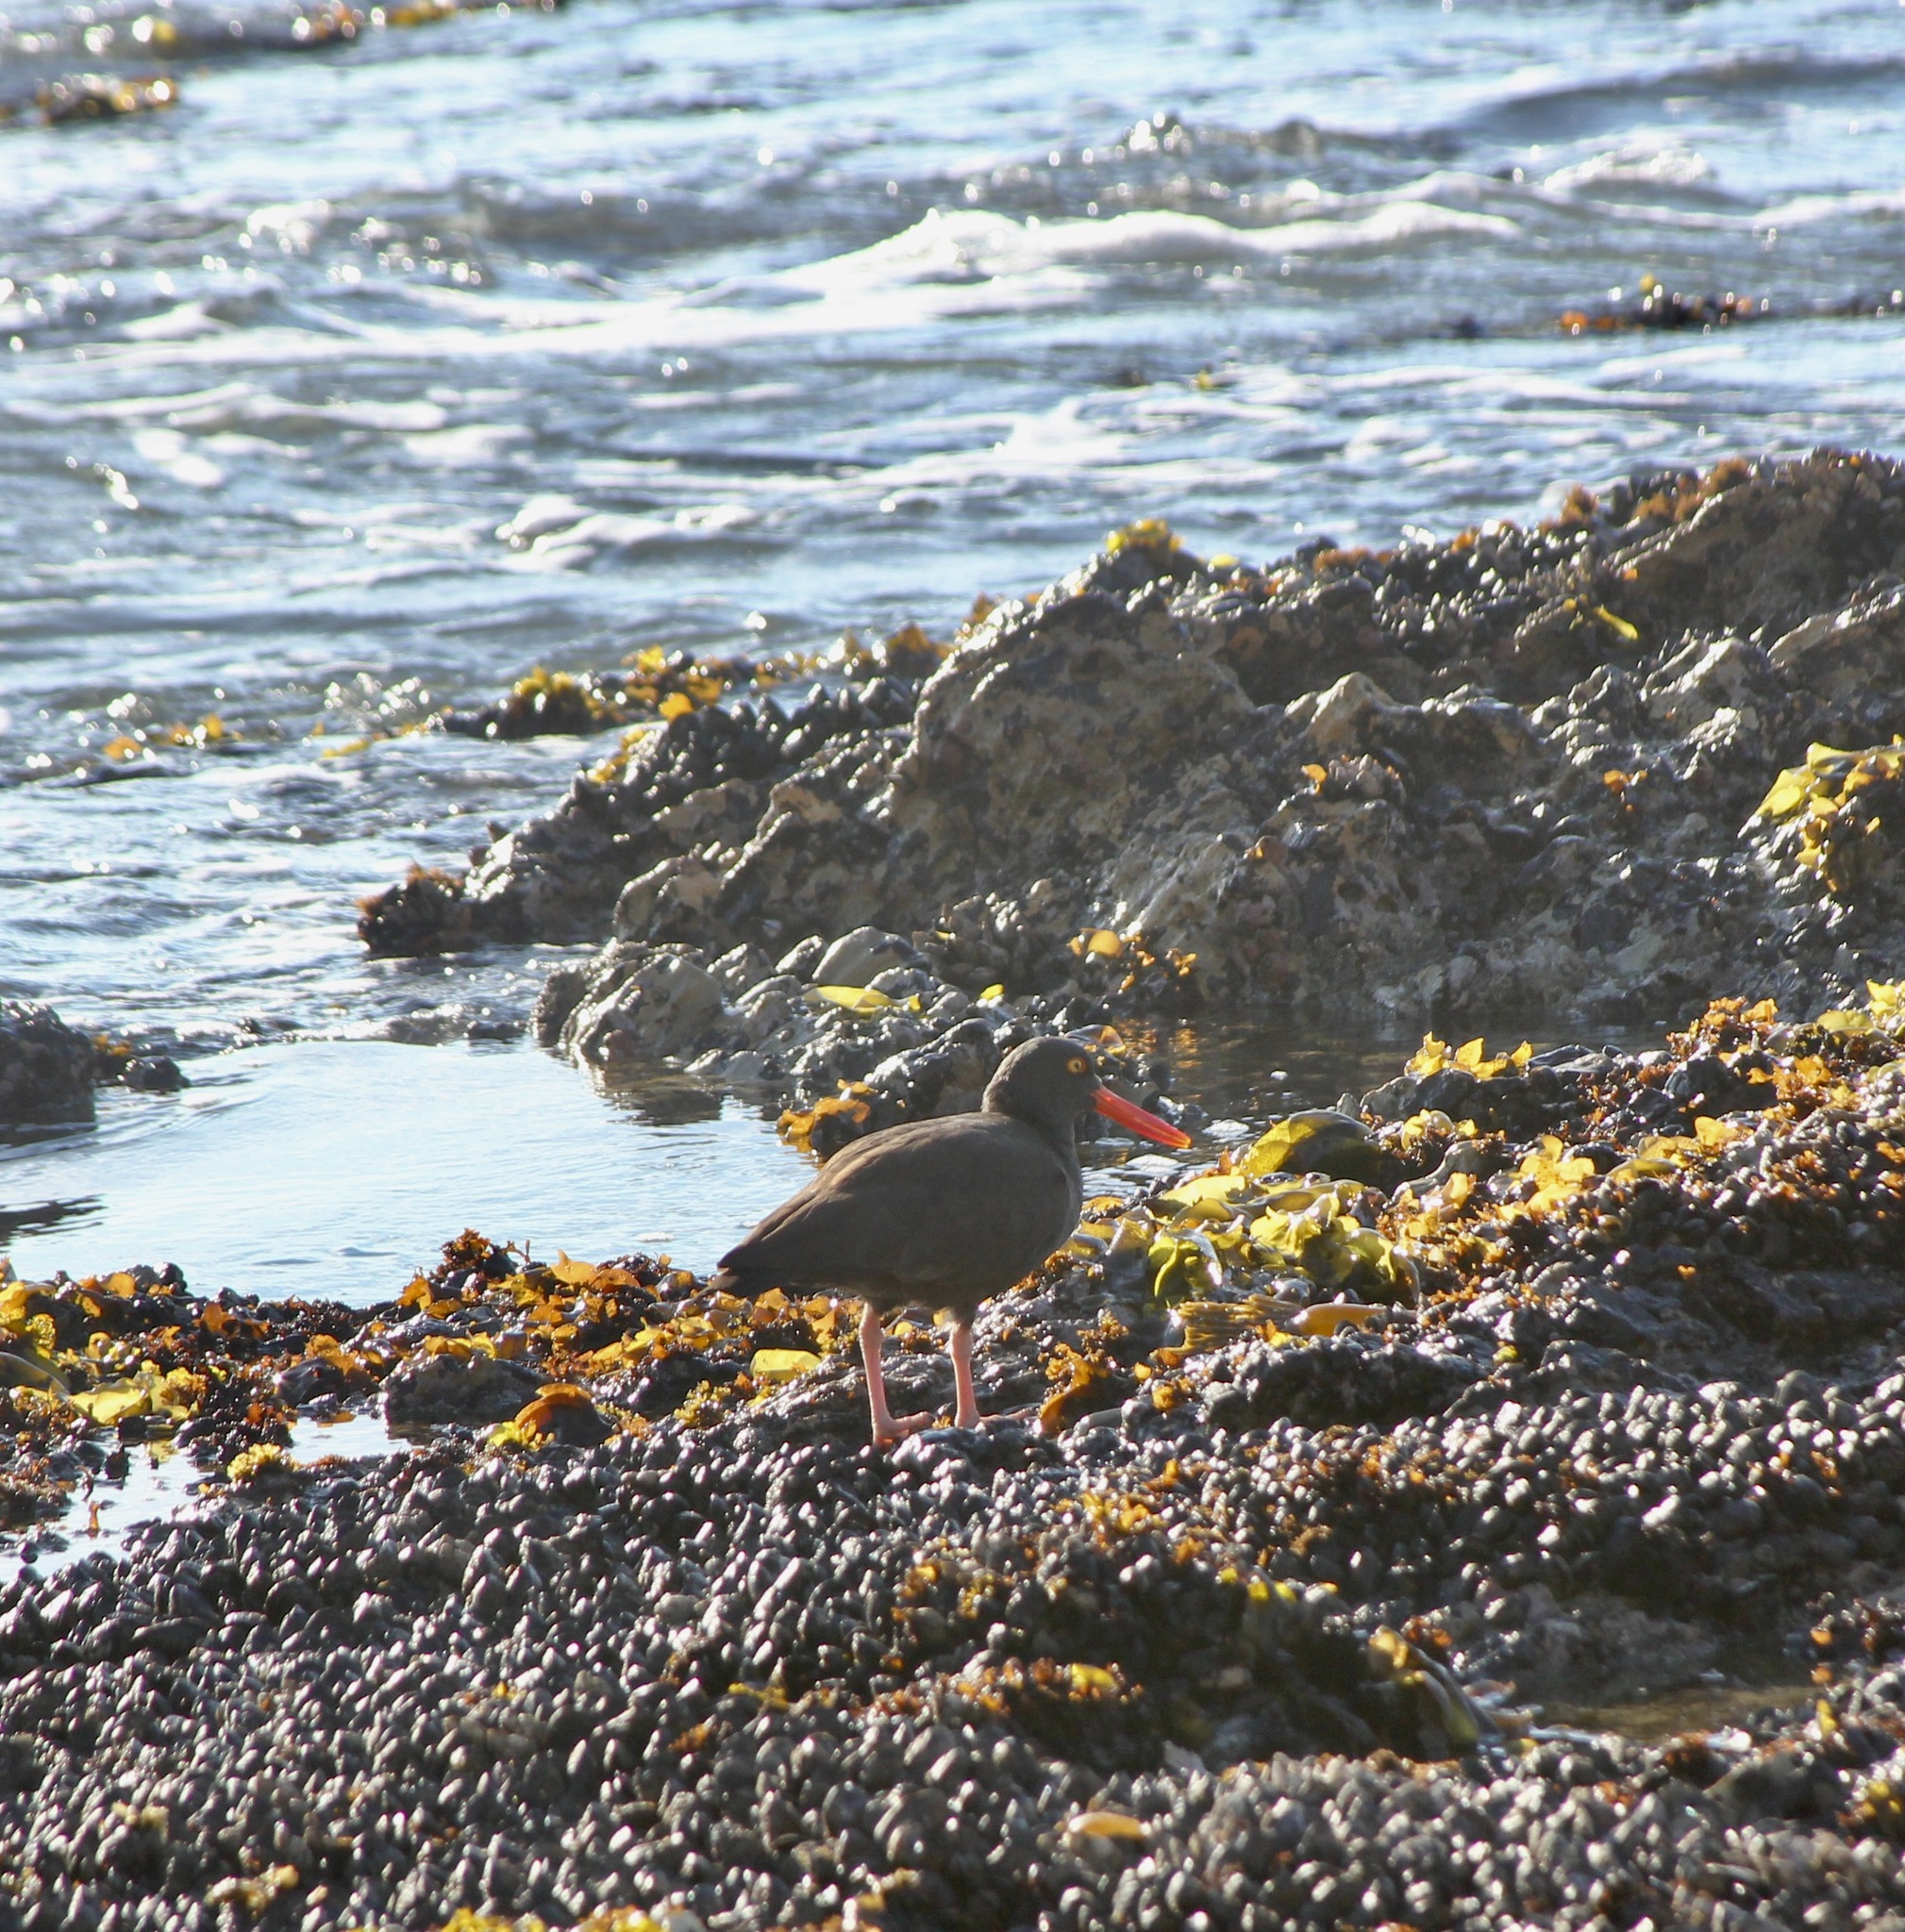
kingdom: Animalia
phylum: Chordata
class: Aves
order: Charadriiformes
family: Haematopodidae
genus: Haematopus
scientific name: Haematopus bachmani
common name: Black oystercatcher
